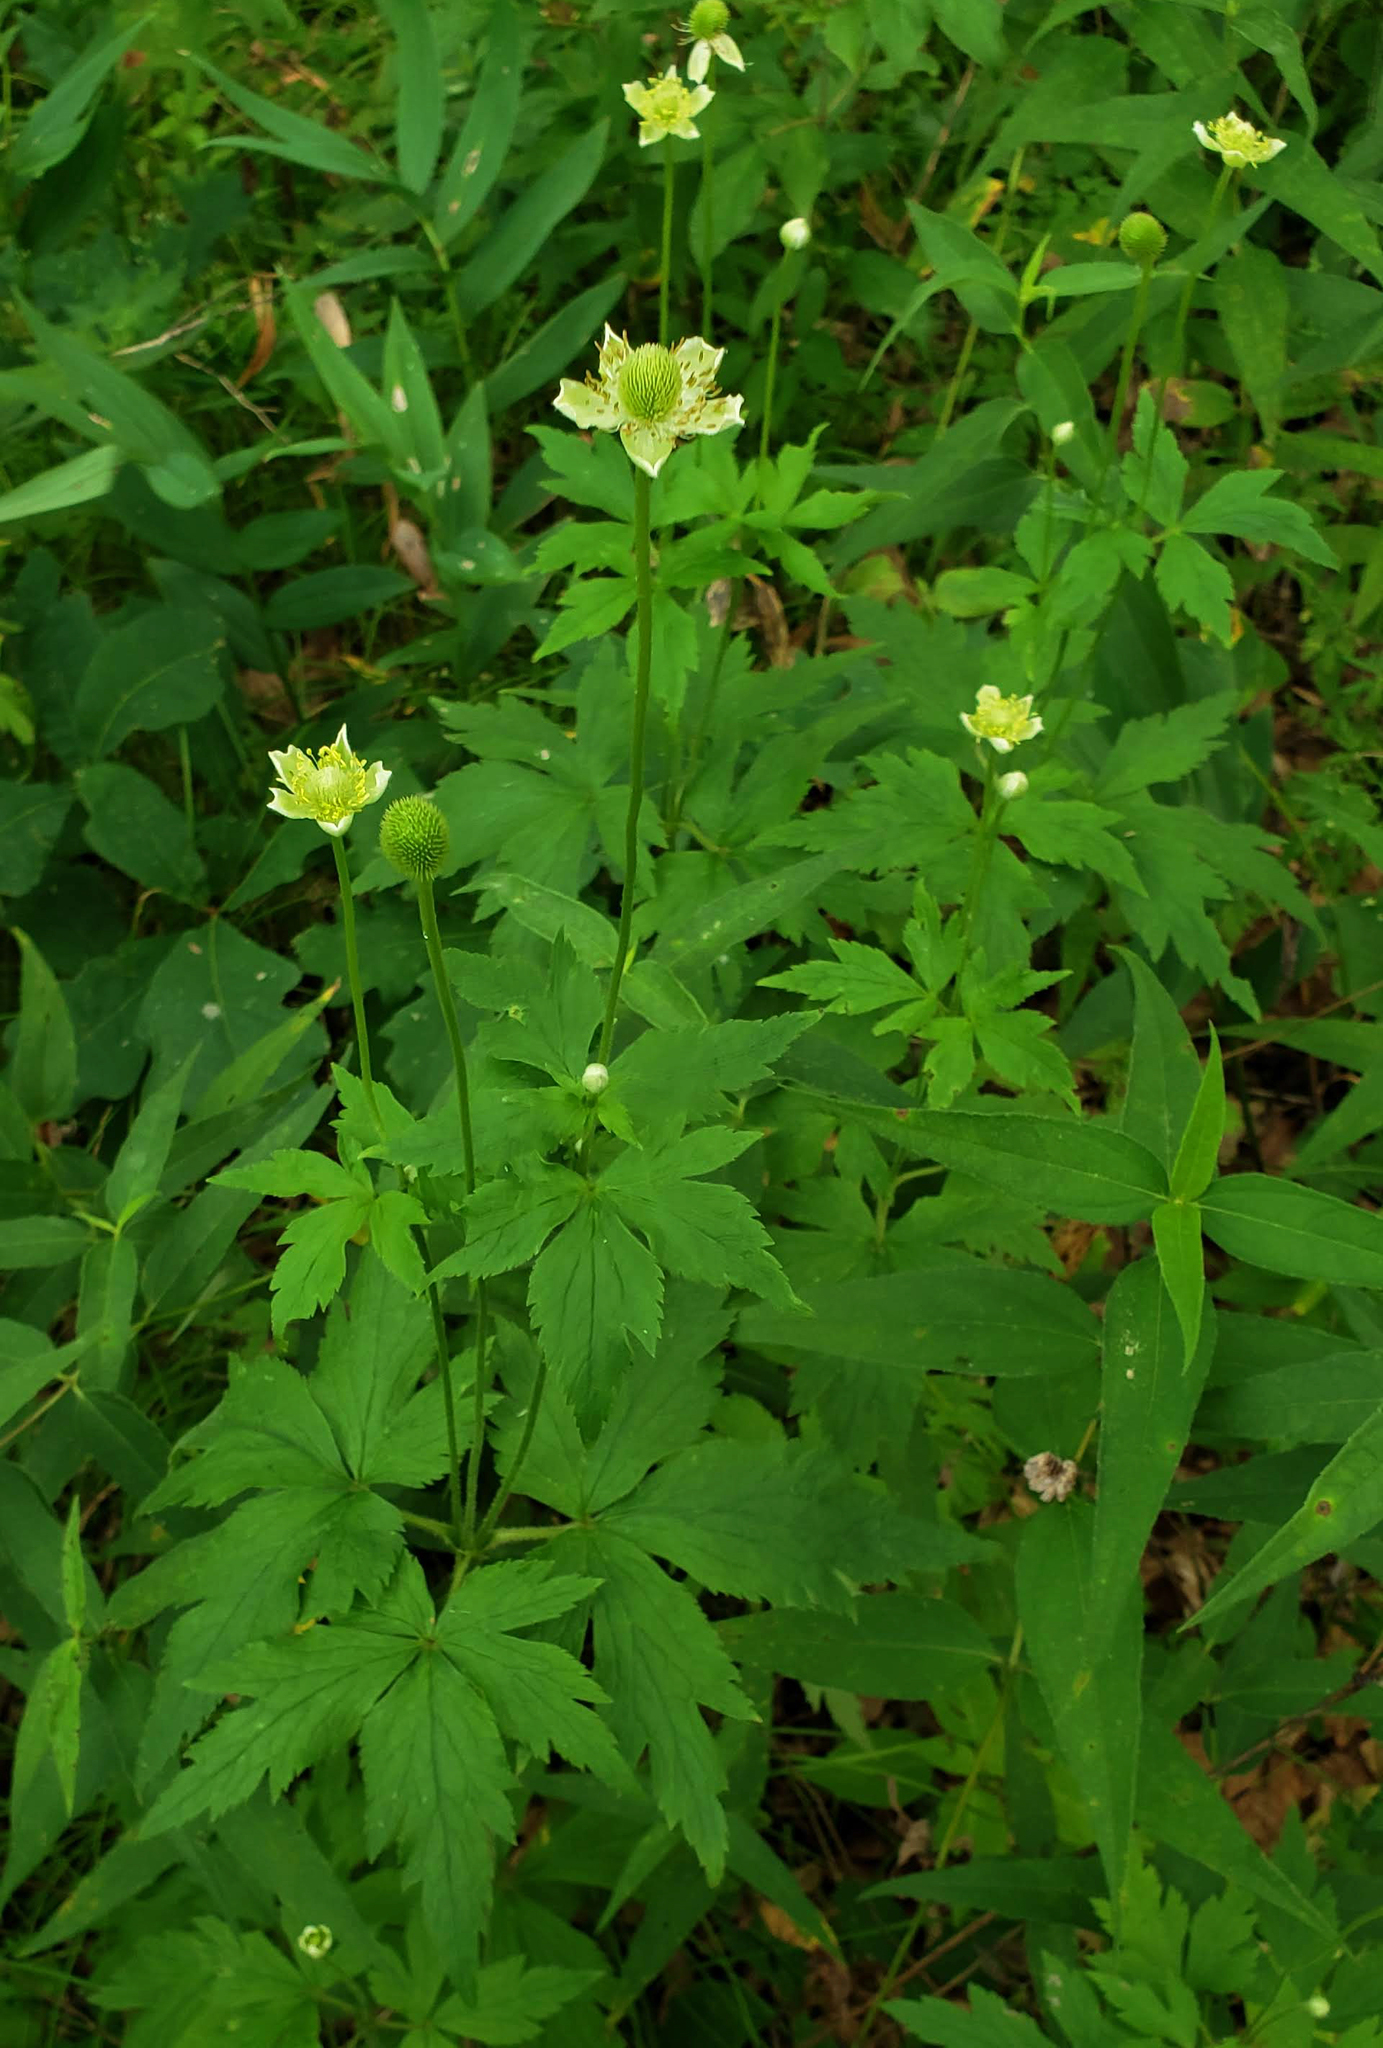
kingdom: Plantae
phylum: Tracheophyta
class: Magnoliopsida
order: Ranunculales
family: Ranunculaceae
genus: Anemone
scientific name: Anemone virginiana
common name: Tall anemone
